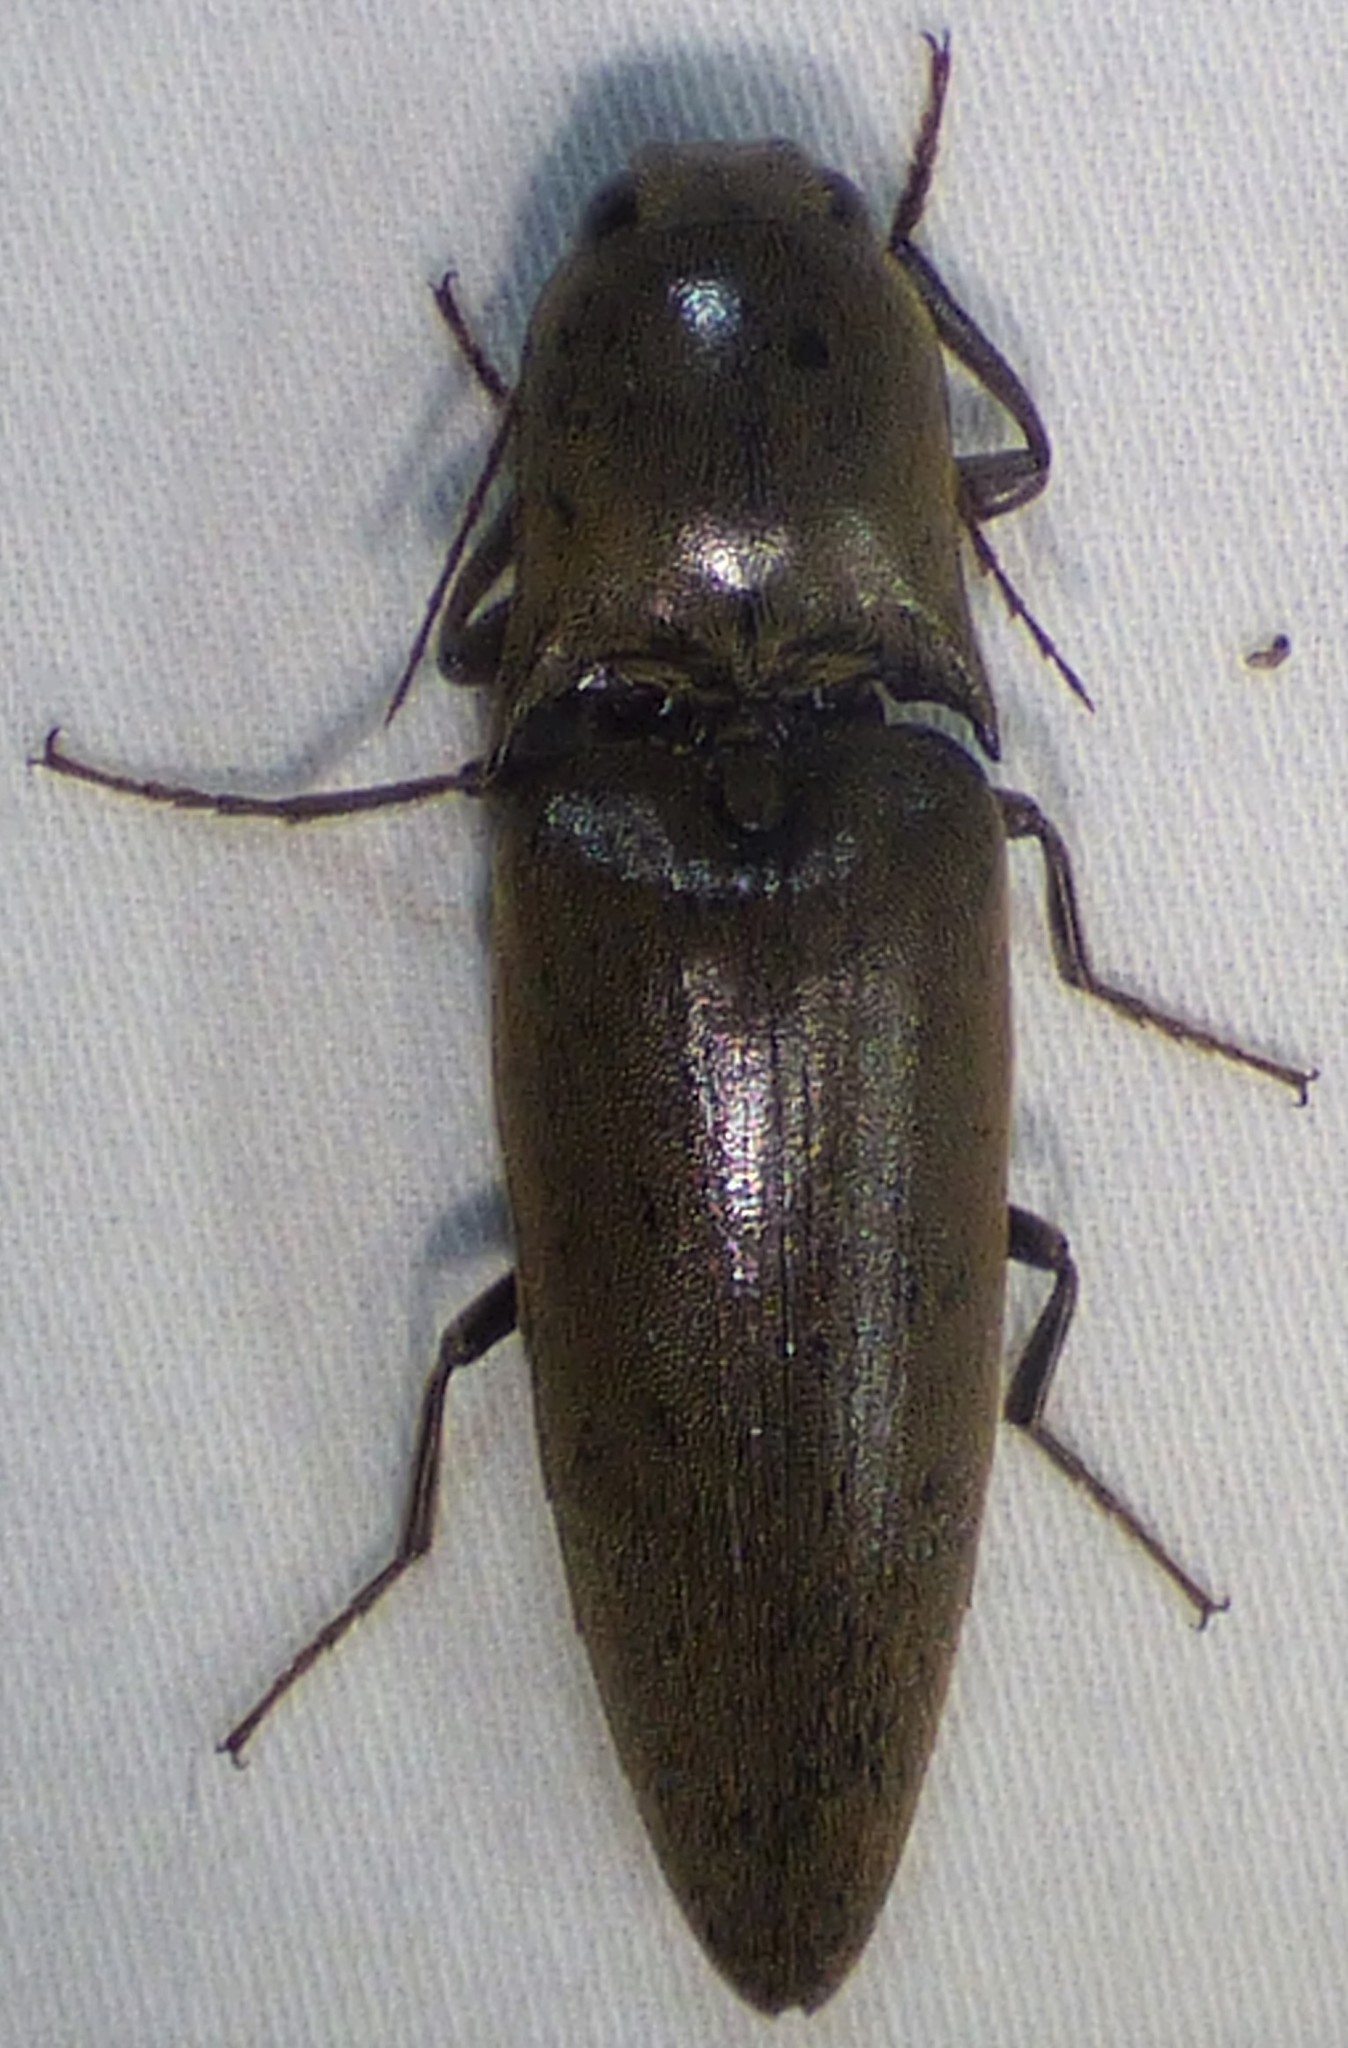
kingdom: Animalia
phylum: Arthropoda
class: Insecta
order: Coleoptera
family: Elateridae
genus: Orthostethus
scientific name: Orthostethus infuscatus
